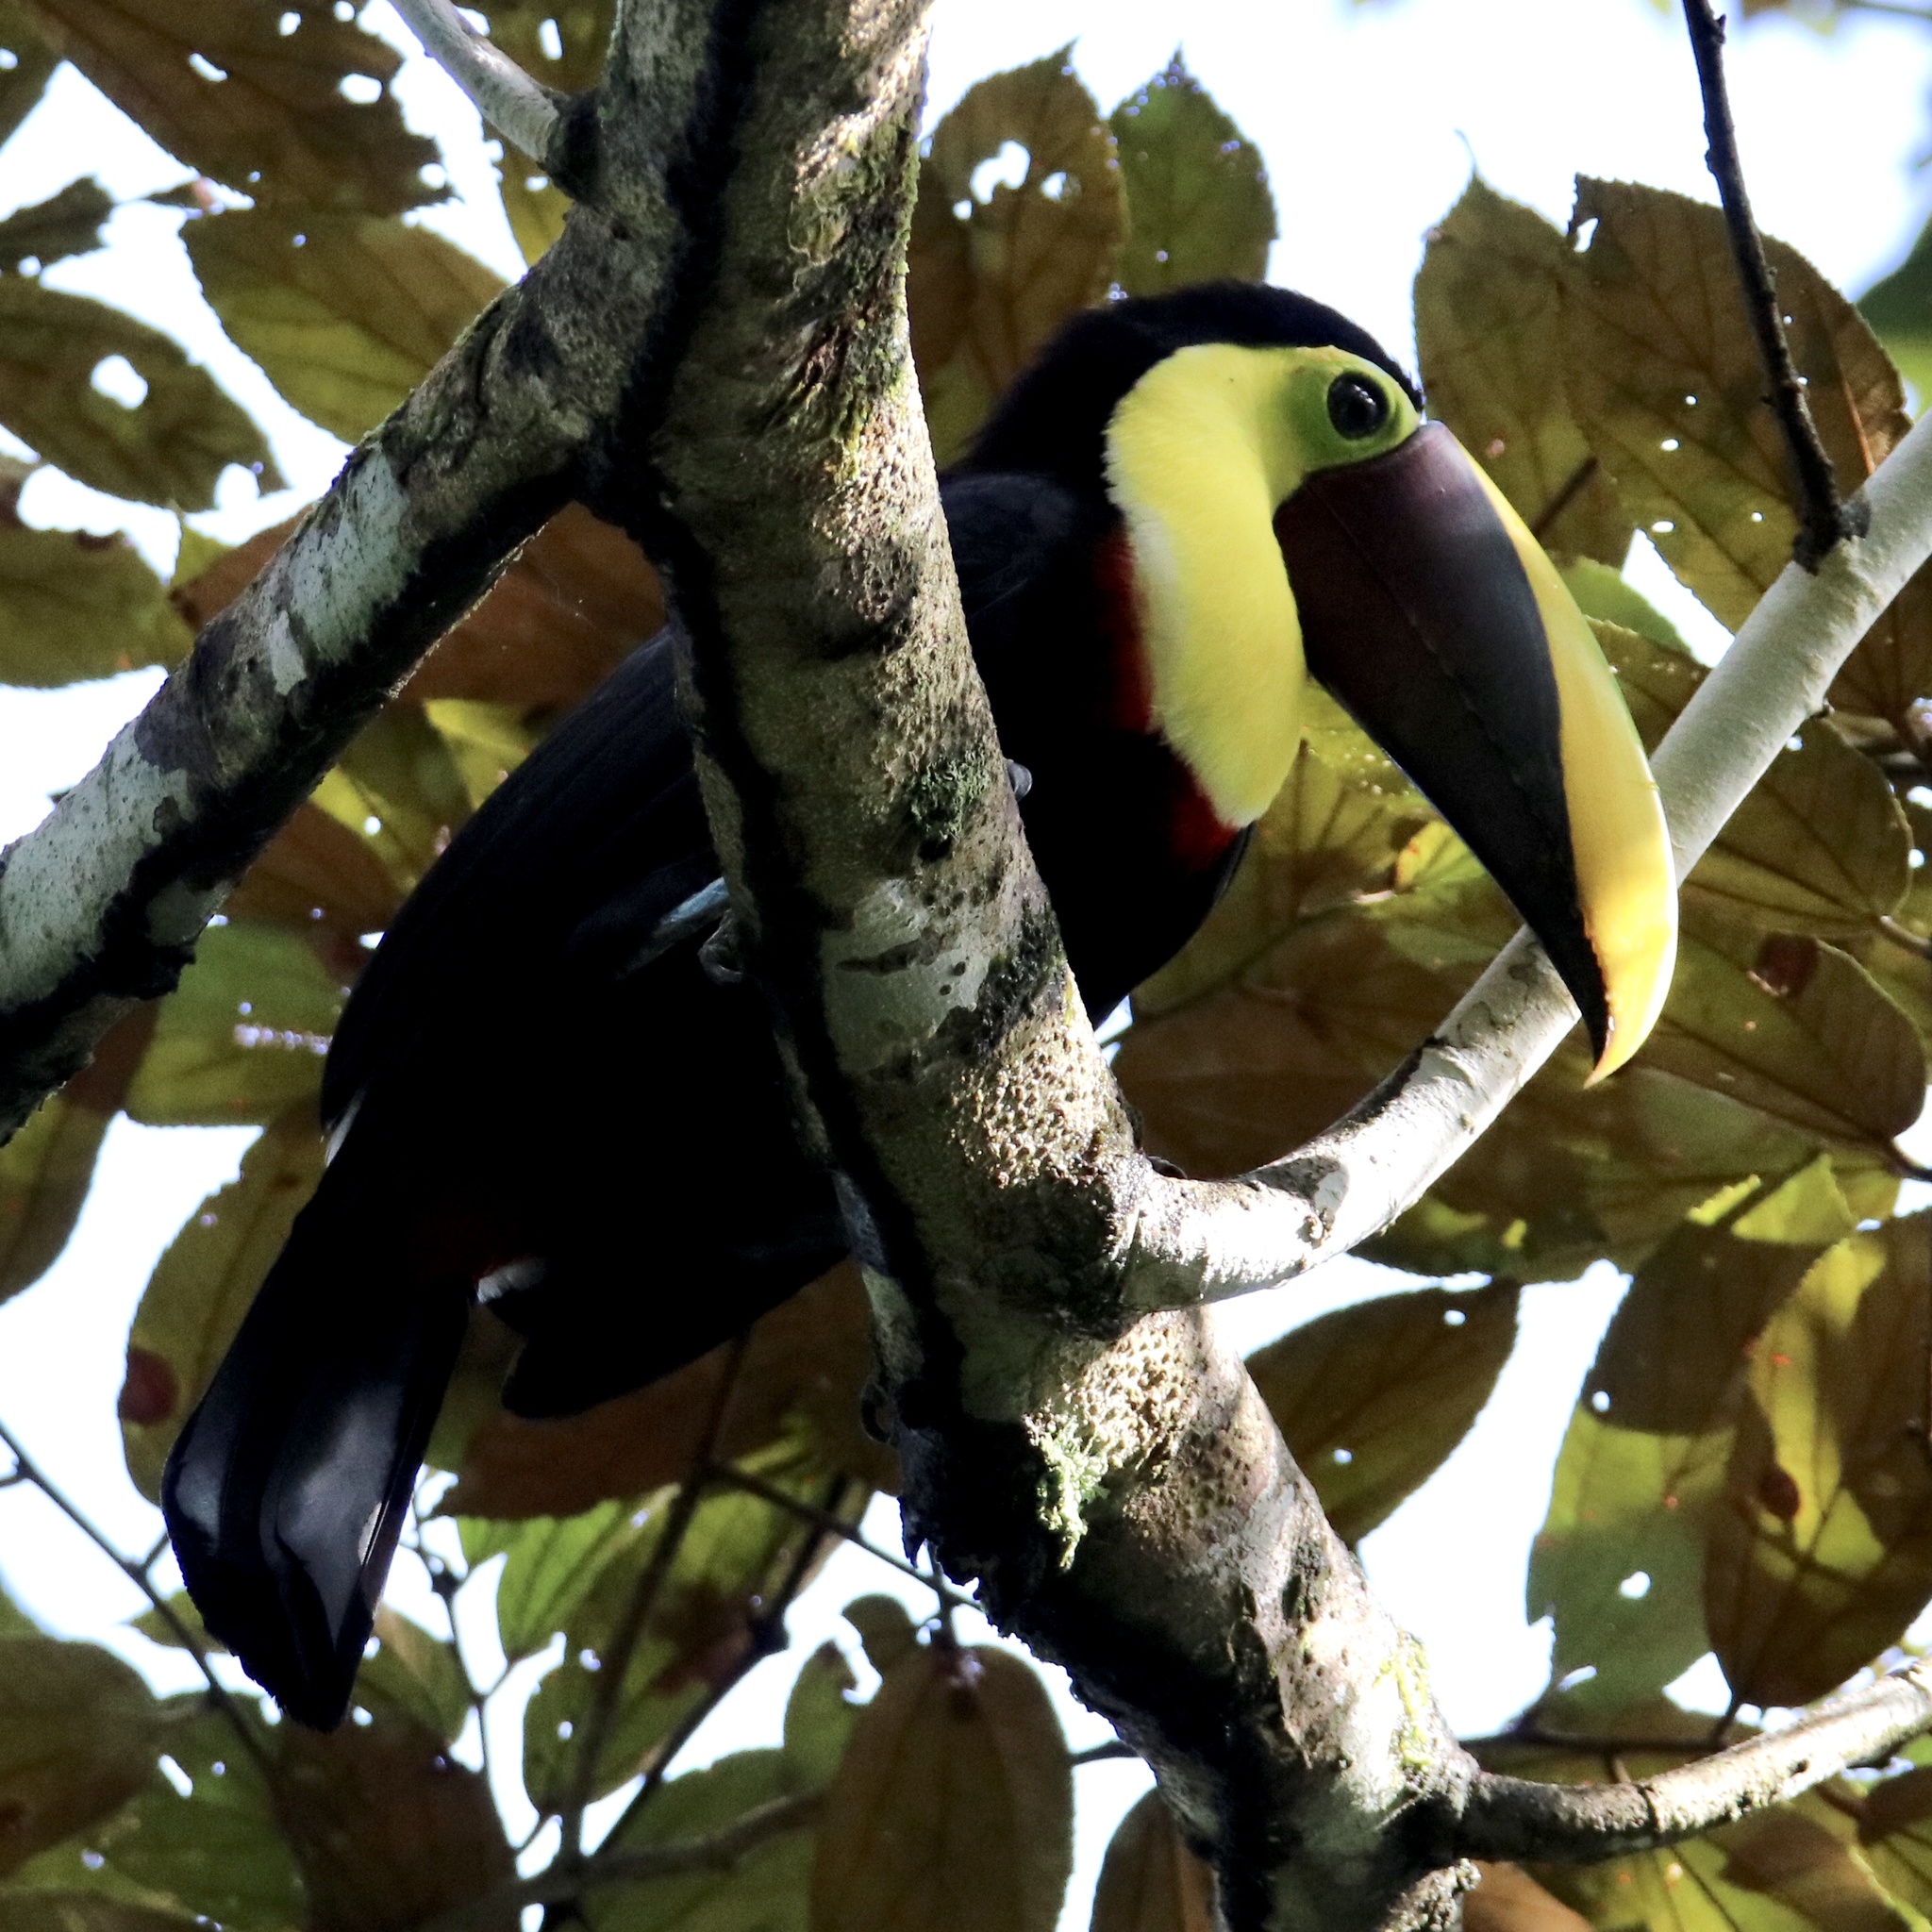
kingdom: Animalia
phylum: Chordata
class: Aves
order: Piciformes
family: Ramphastidae
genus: Ramphastos
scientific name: Ramphastos ambiguus
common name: Yellow-throated toucan
